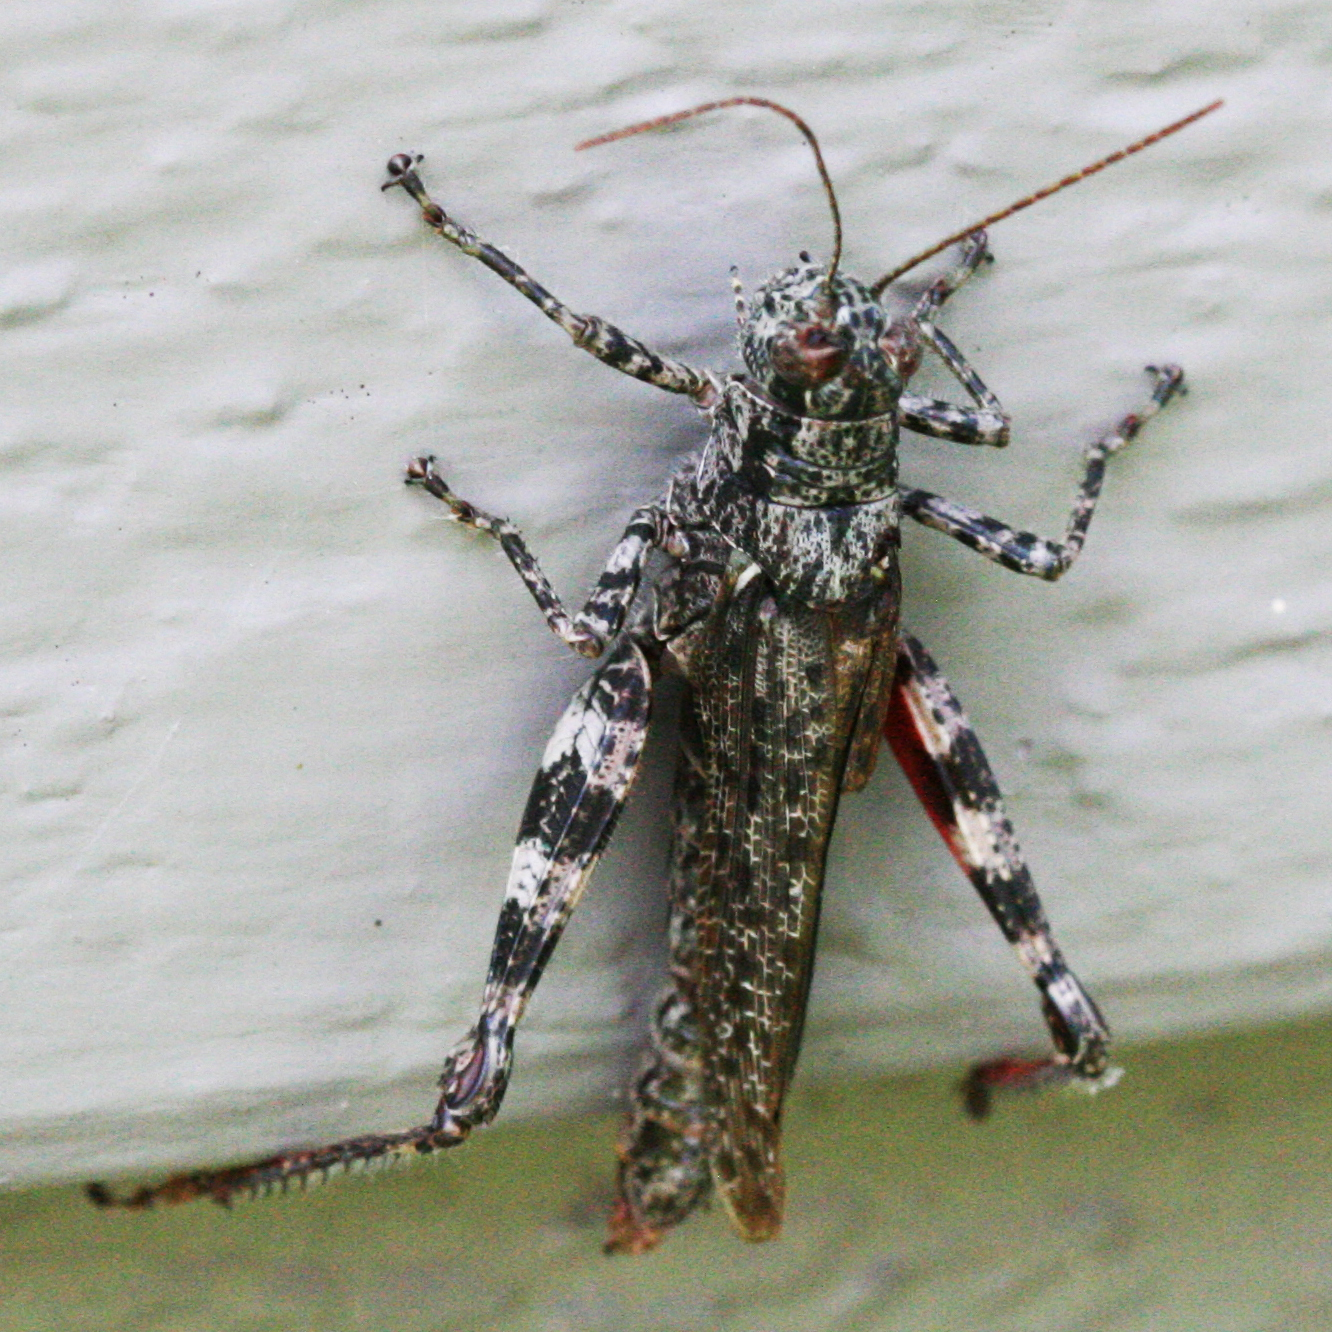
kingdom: Animalia
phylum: Arthropoda
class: Insecta
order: Orthoptera
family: Acrididae
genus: Melanoplus
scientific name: Melanoplus punctulatus
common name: Pine-tree spur-throat grasshopper
